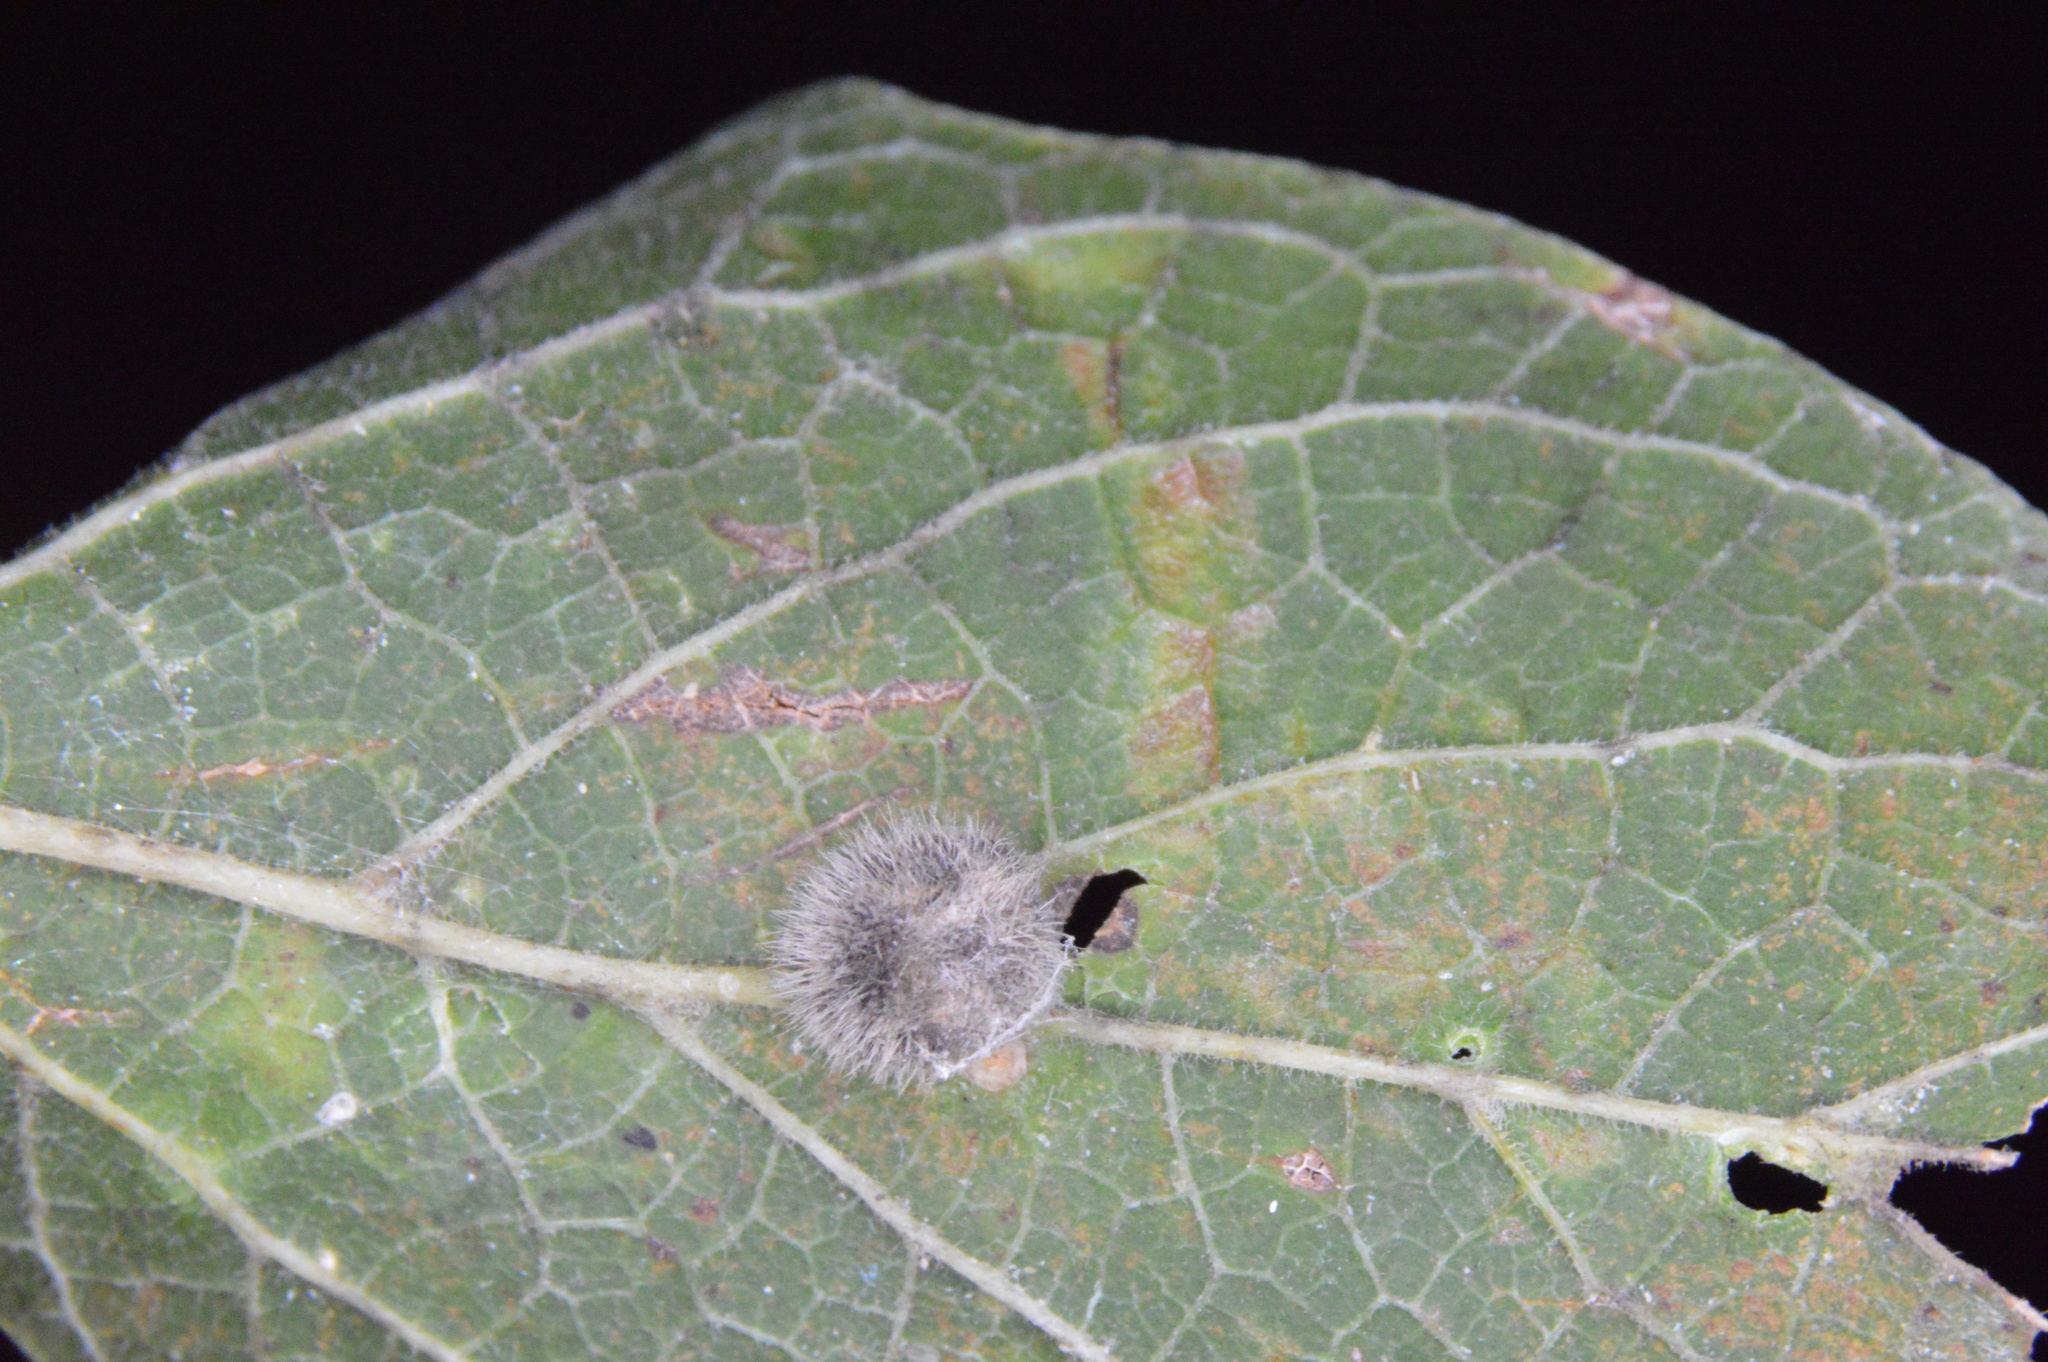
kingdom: Animalia
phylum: Arthropoda
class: Insecta
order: Diptera
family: Cecidomyiidae
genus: Celticecis
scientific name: Celticecis pubescens
